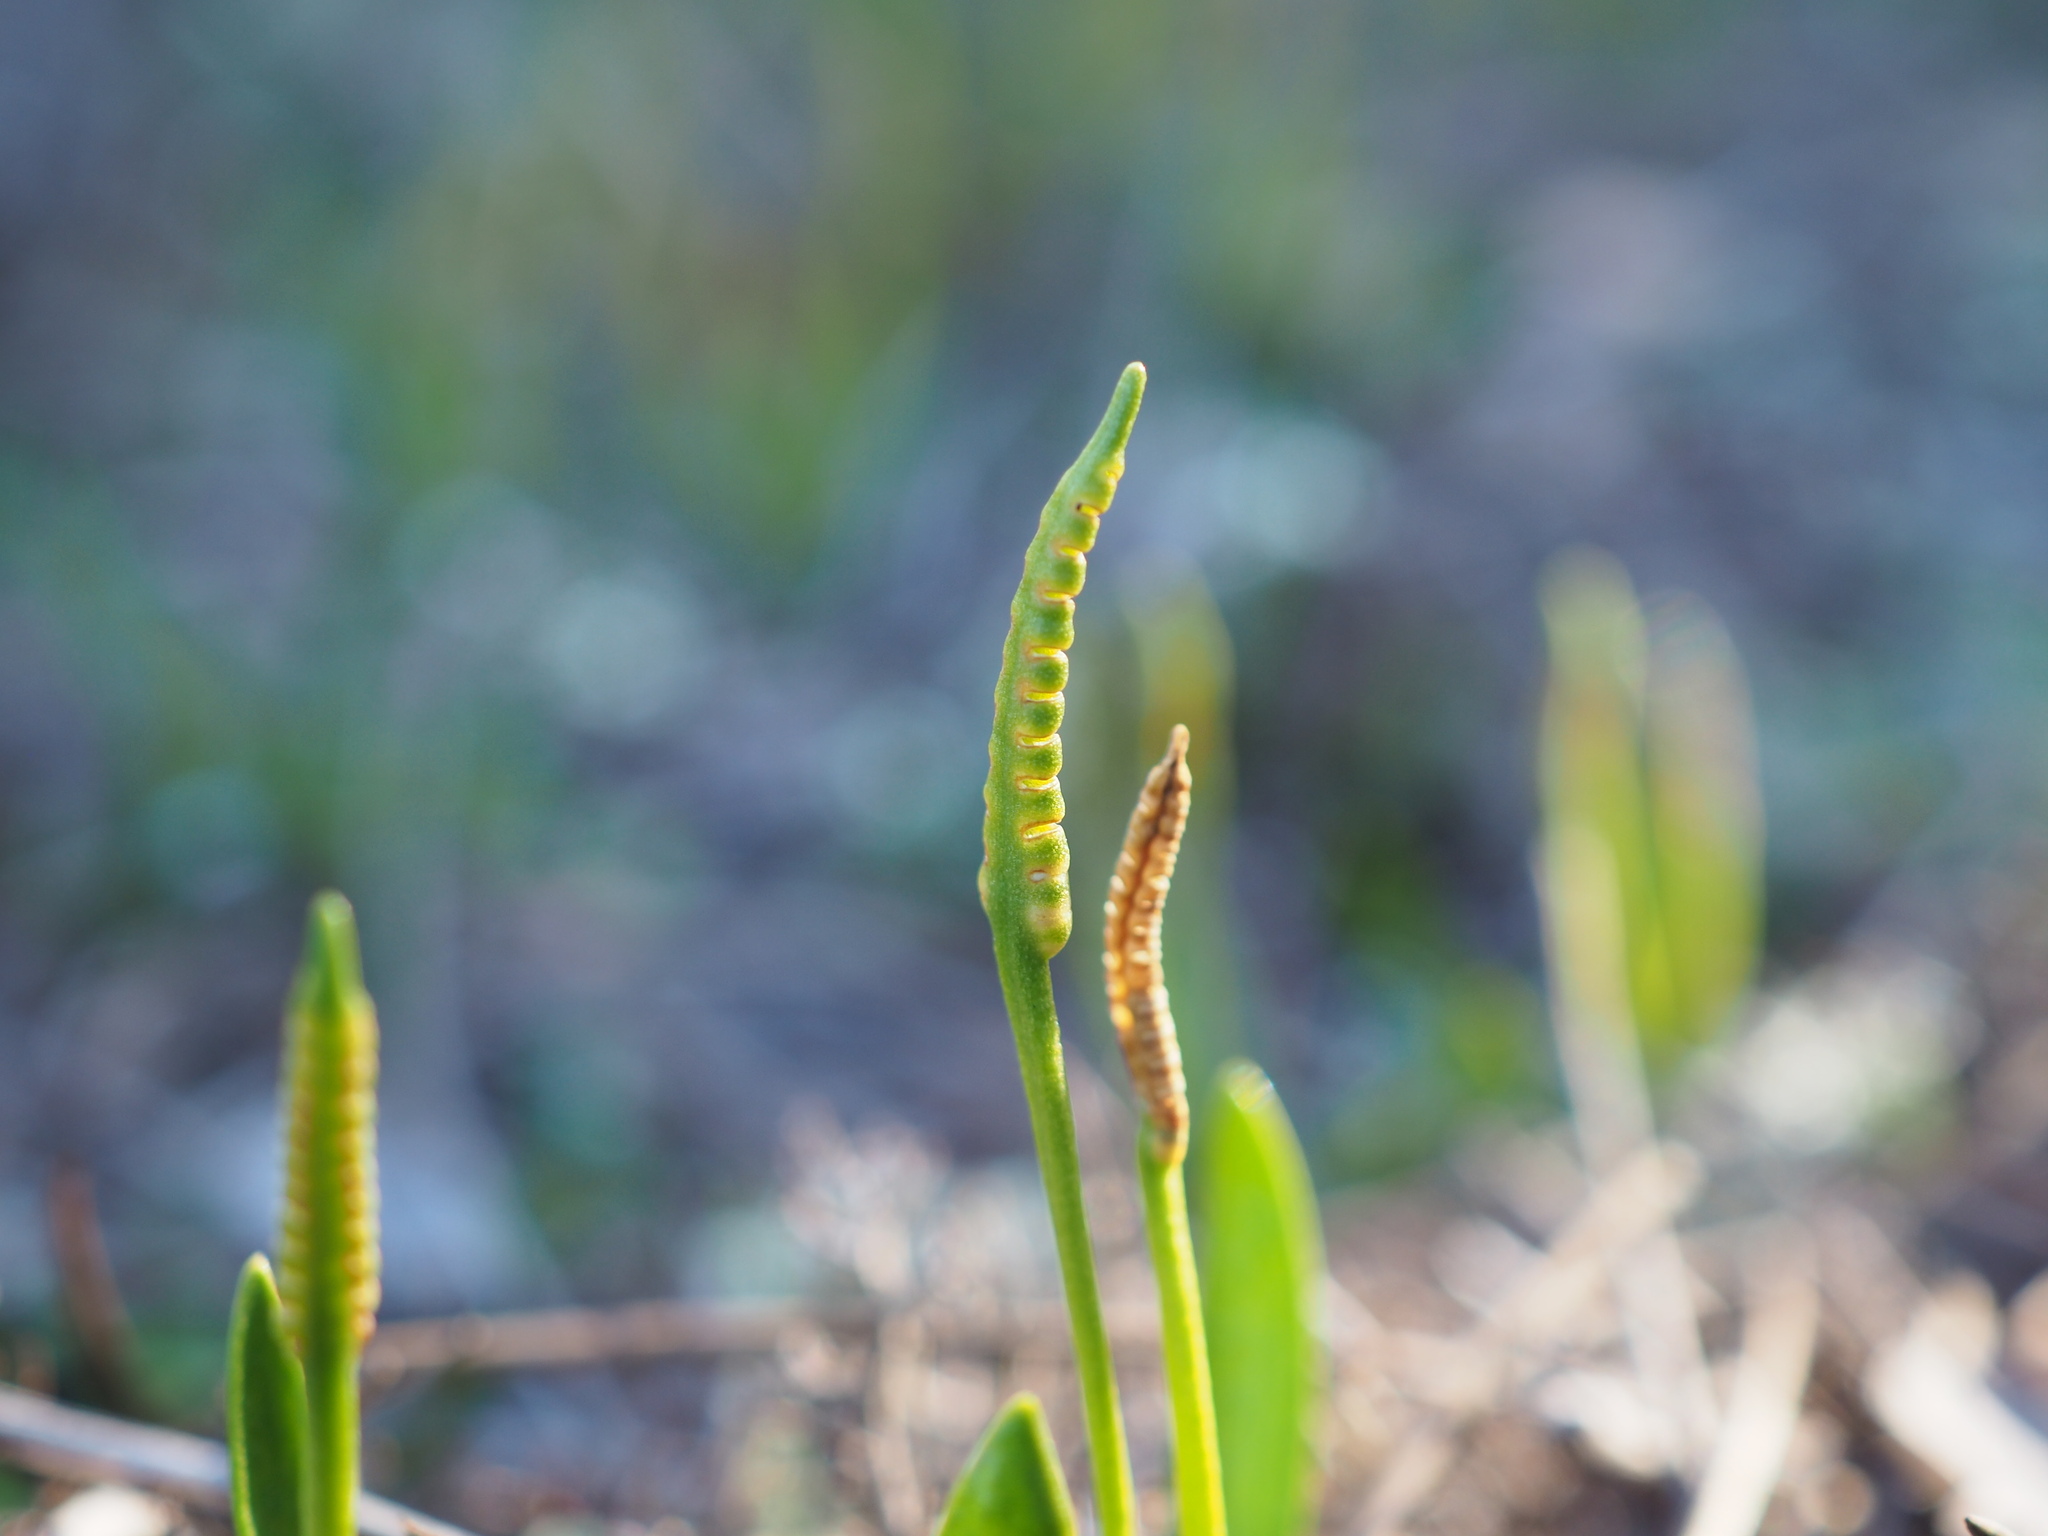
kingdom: Plantae
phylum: Tracheophyta
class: Polypodiopsida
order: Ophioglossales
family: Ophioglossaceae
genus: Ophioglossum
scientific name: Ophioglossum lusitanicum
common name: Least adder's-tongue
